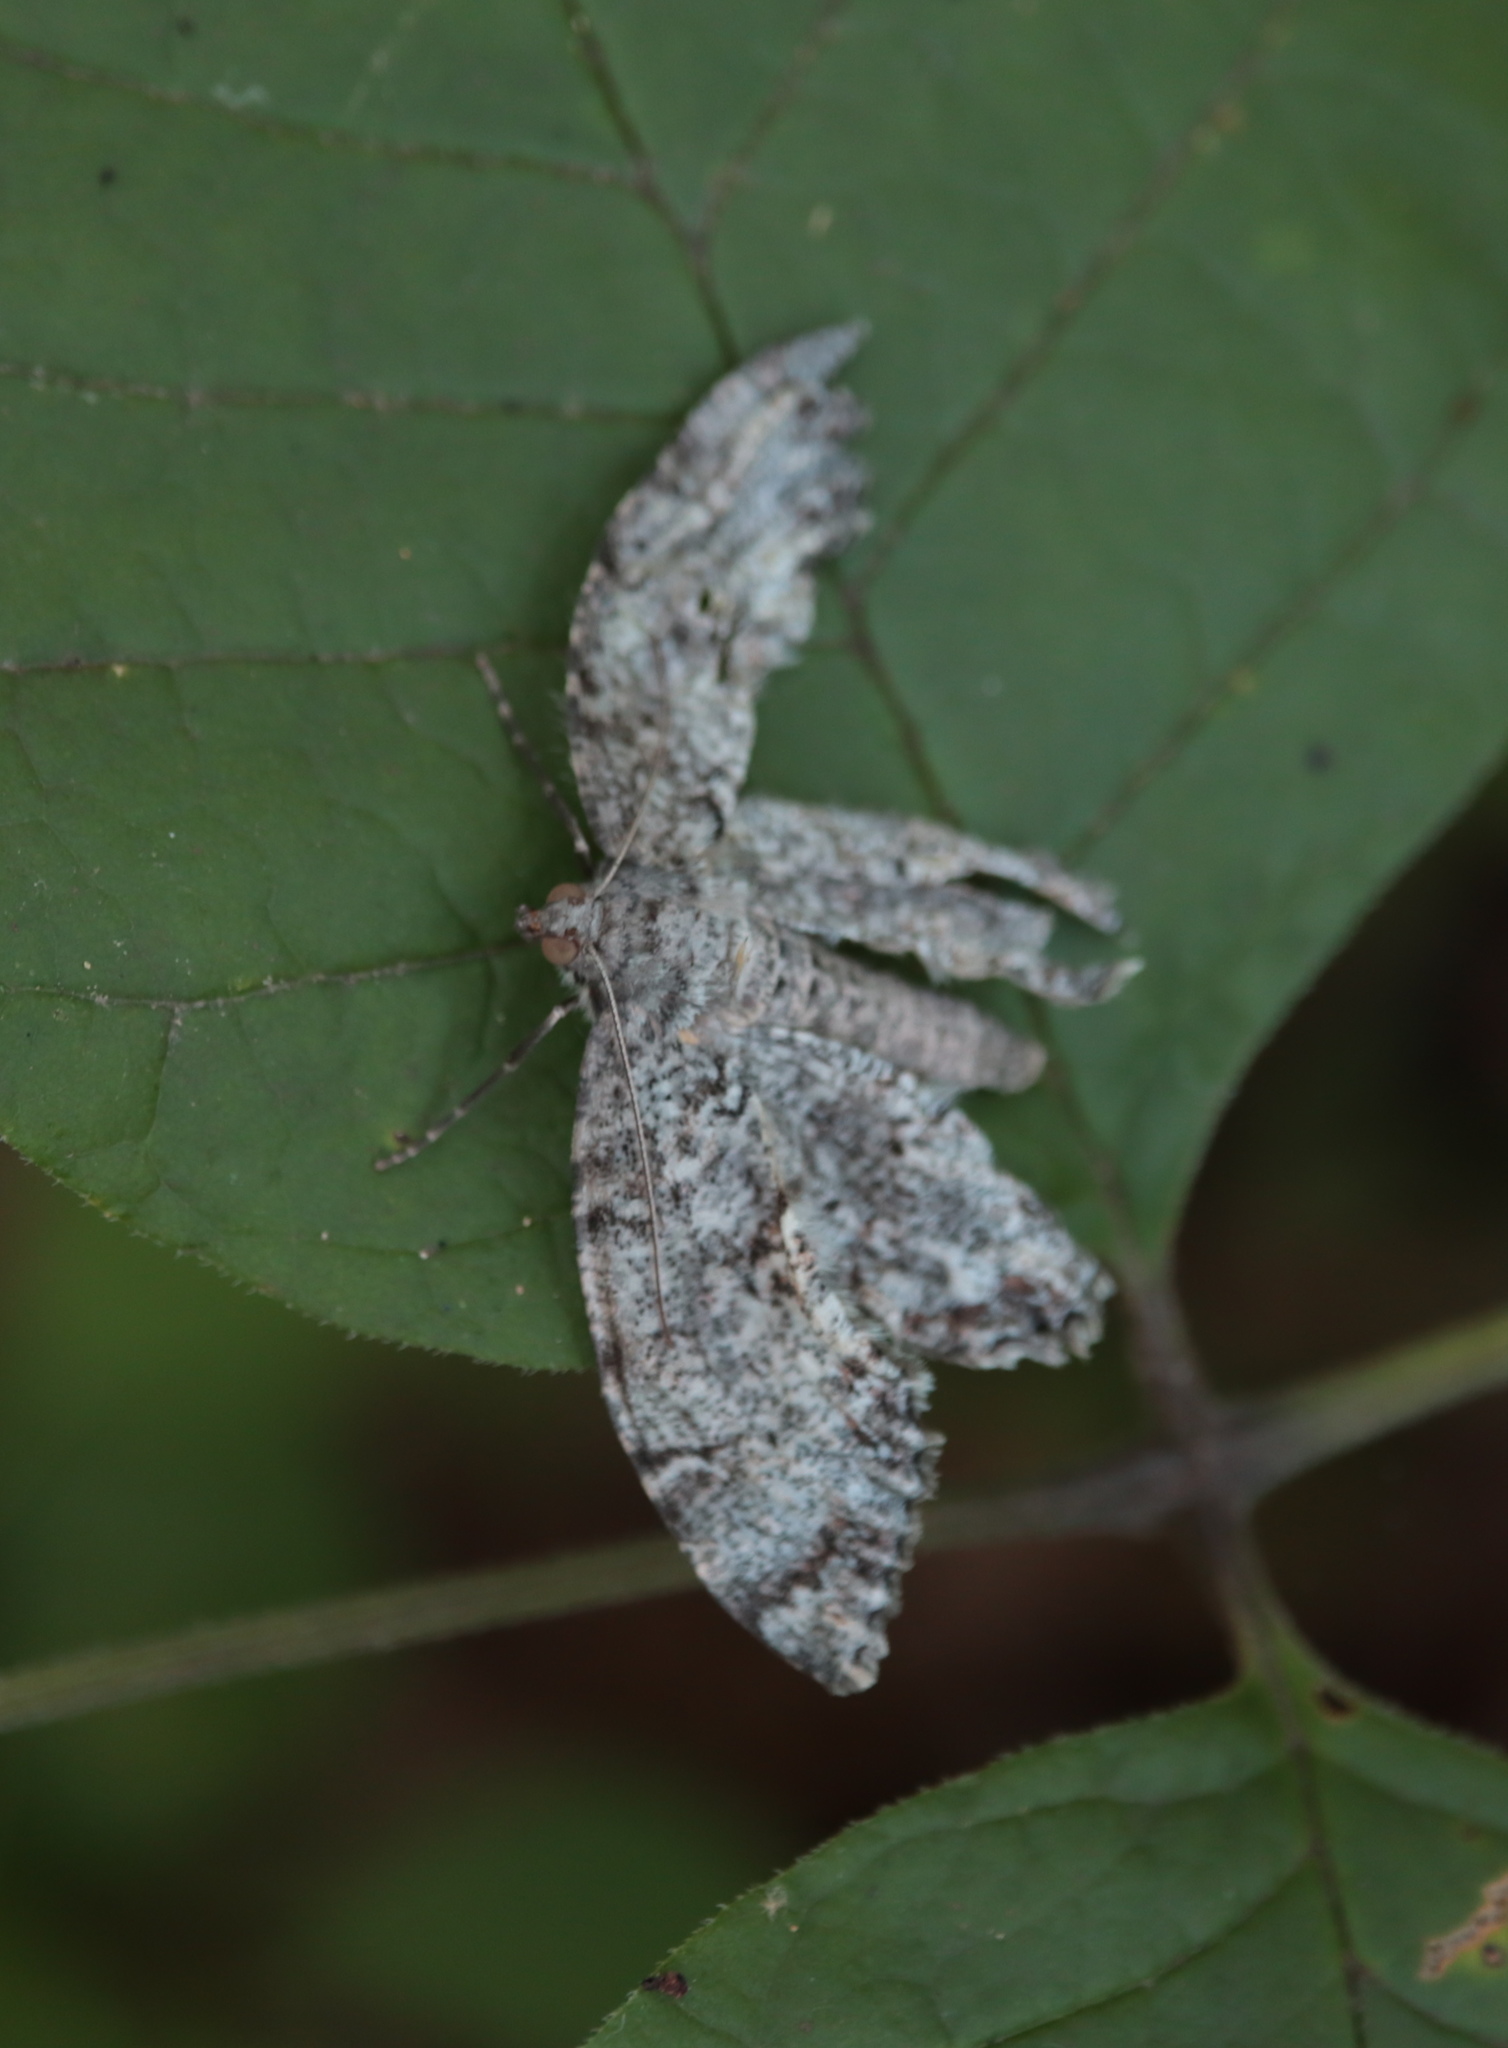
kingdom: Animalia
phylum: Arthropoda
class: Insecta
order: Lepidoptera
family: Geometridae
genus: Epimecis
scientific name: Epimecis hortaria
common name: Tulip-tree beauty
